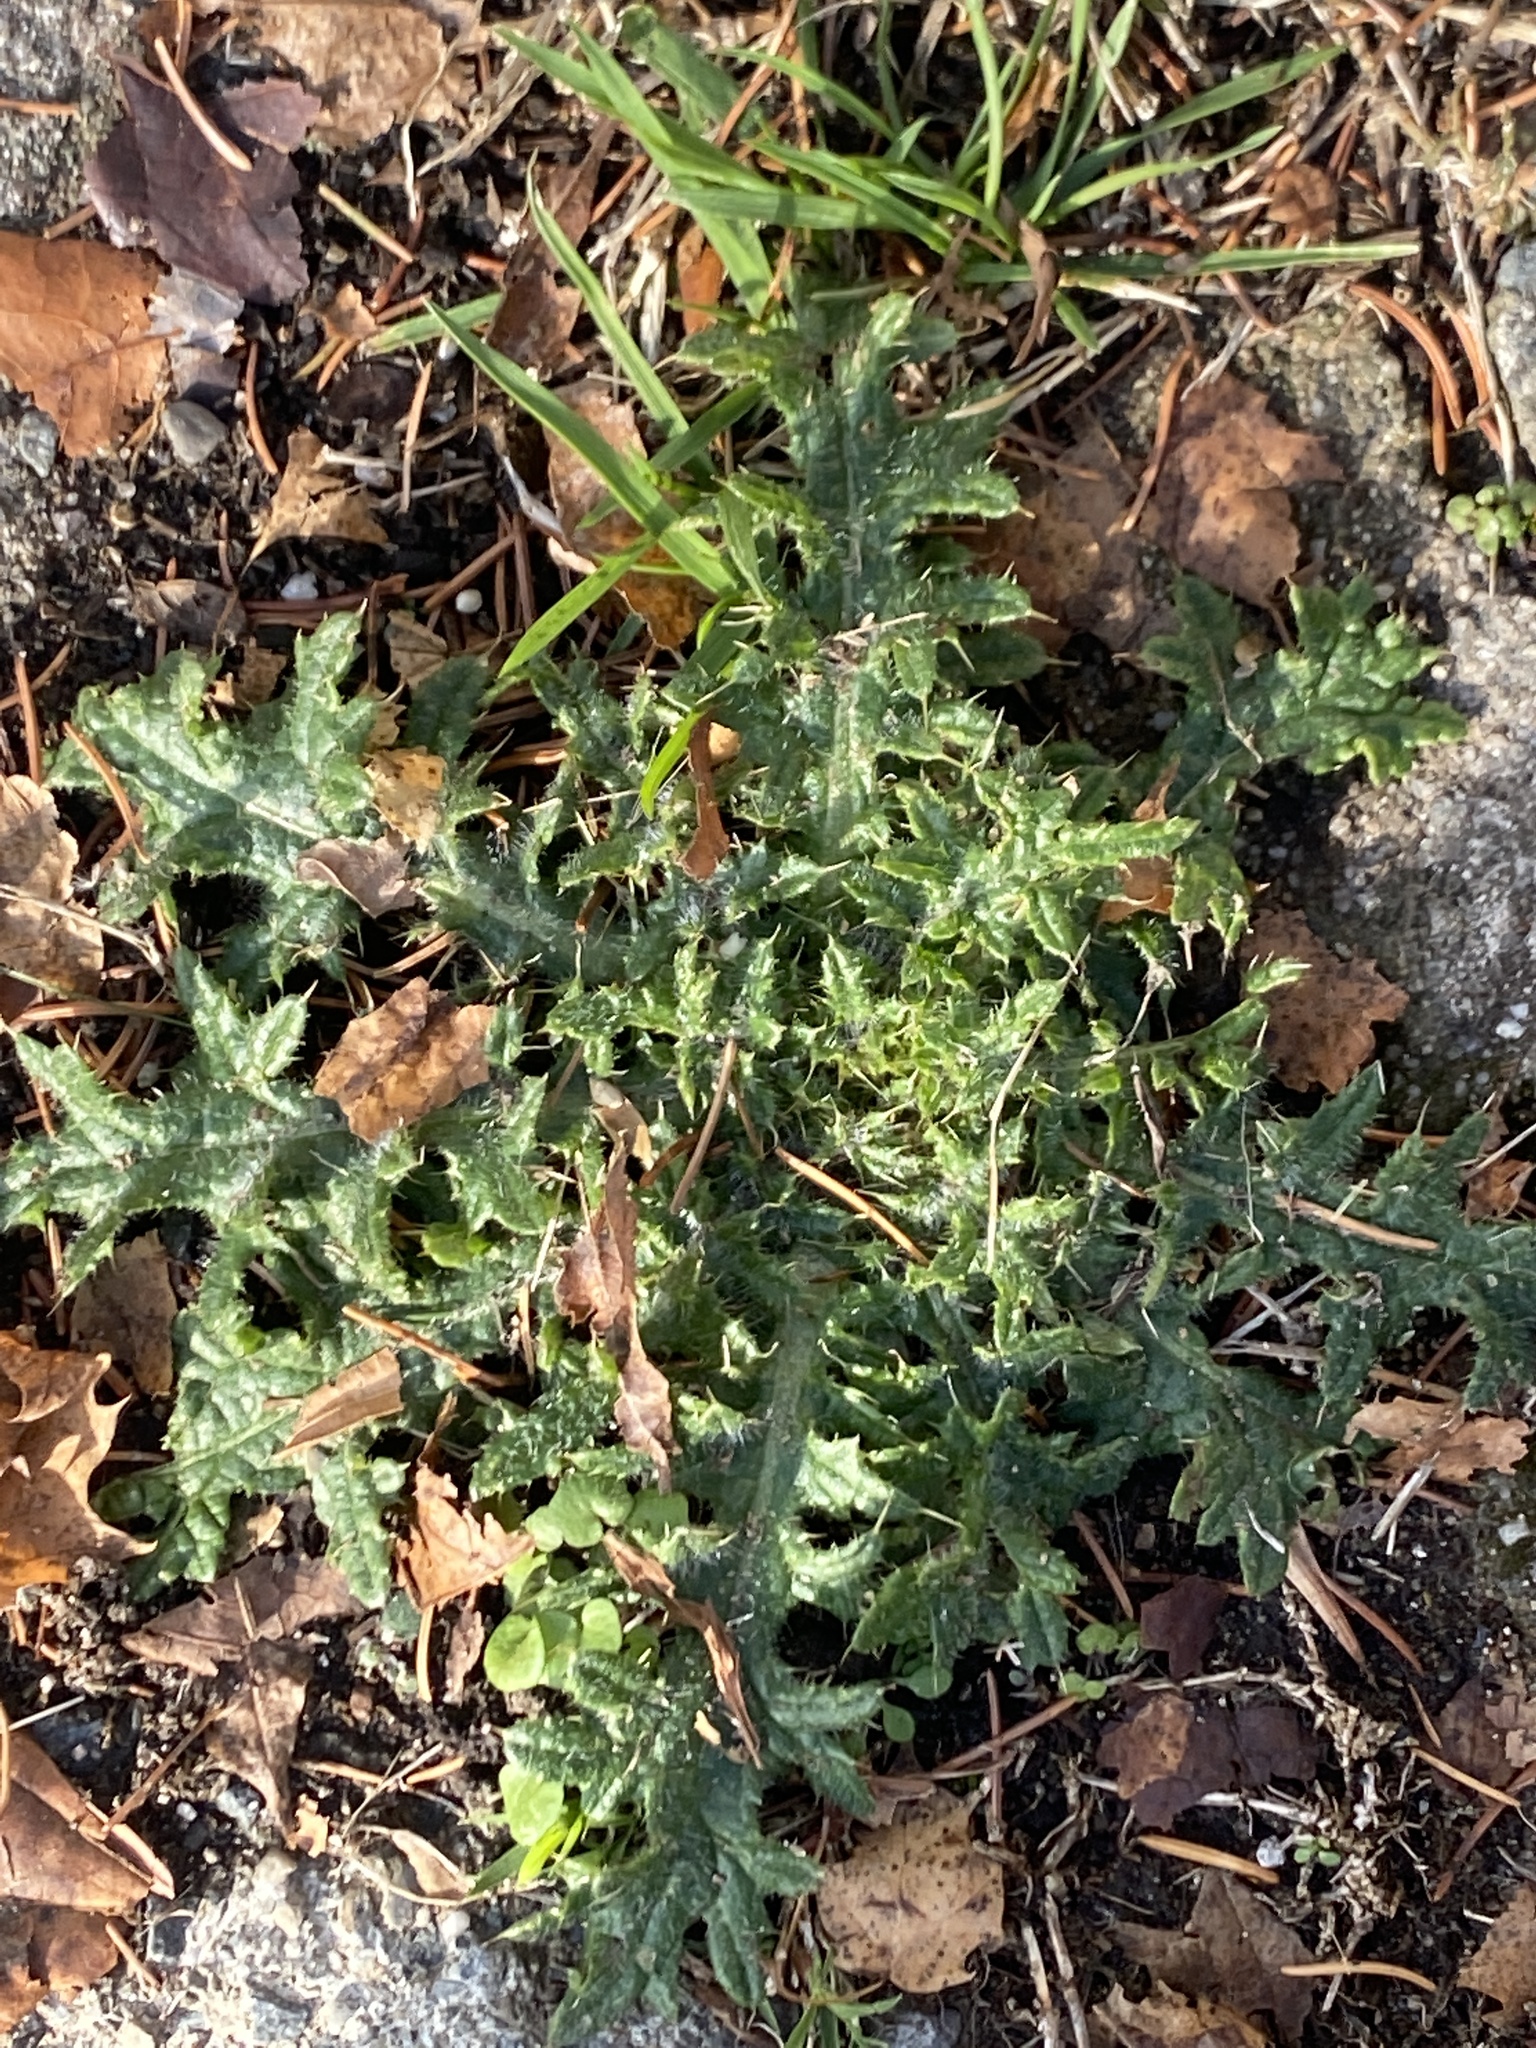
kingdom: Plantae
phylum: Tracheophyta
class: Magnoliopsida
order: Asterales
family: Asteraceae
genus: Cirsium
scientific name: Cirsium vulgare
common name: Bull thistle
